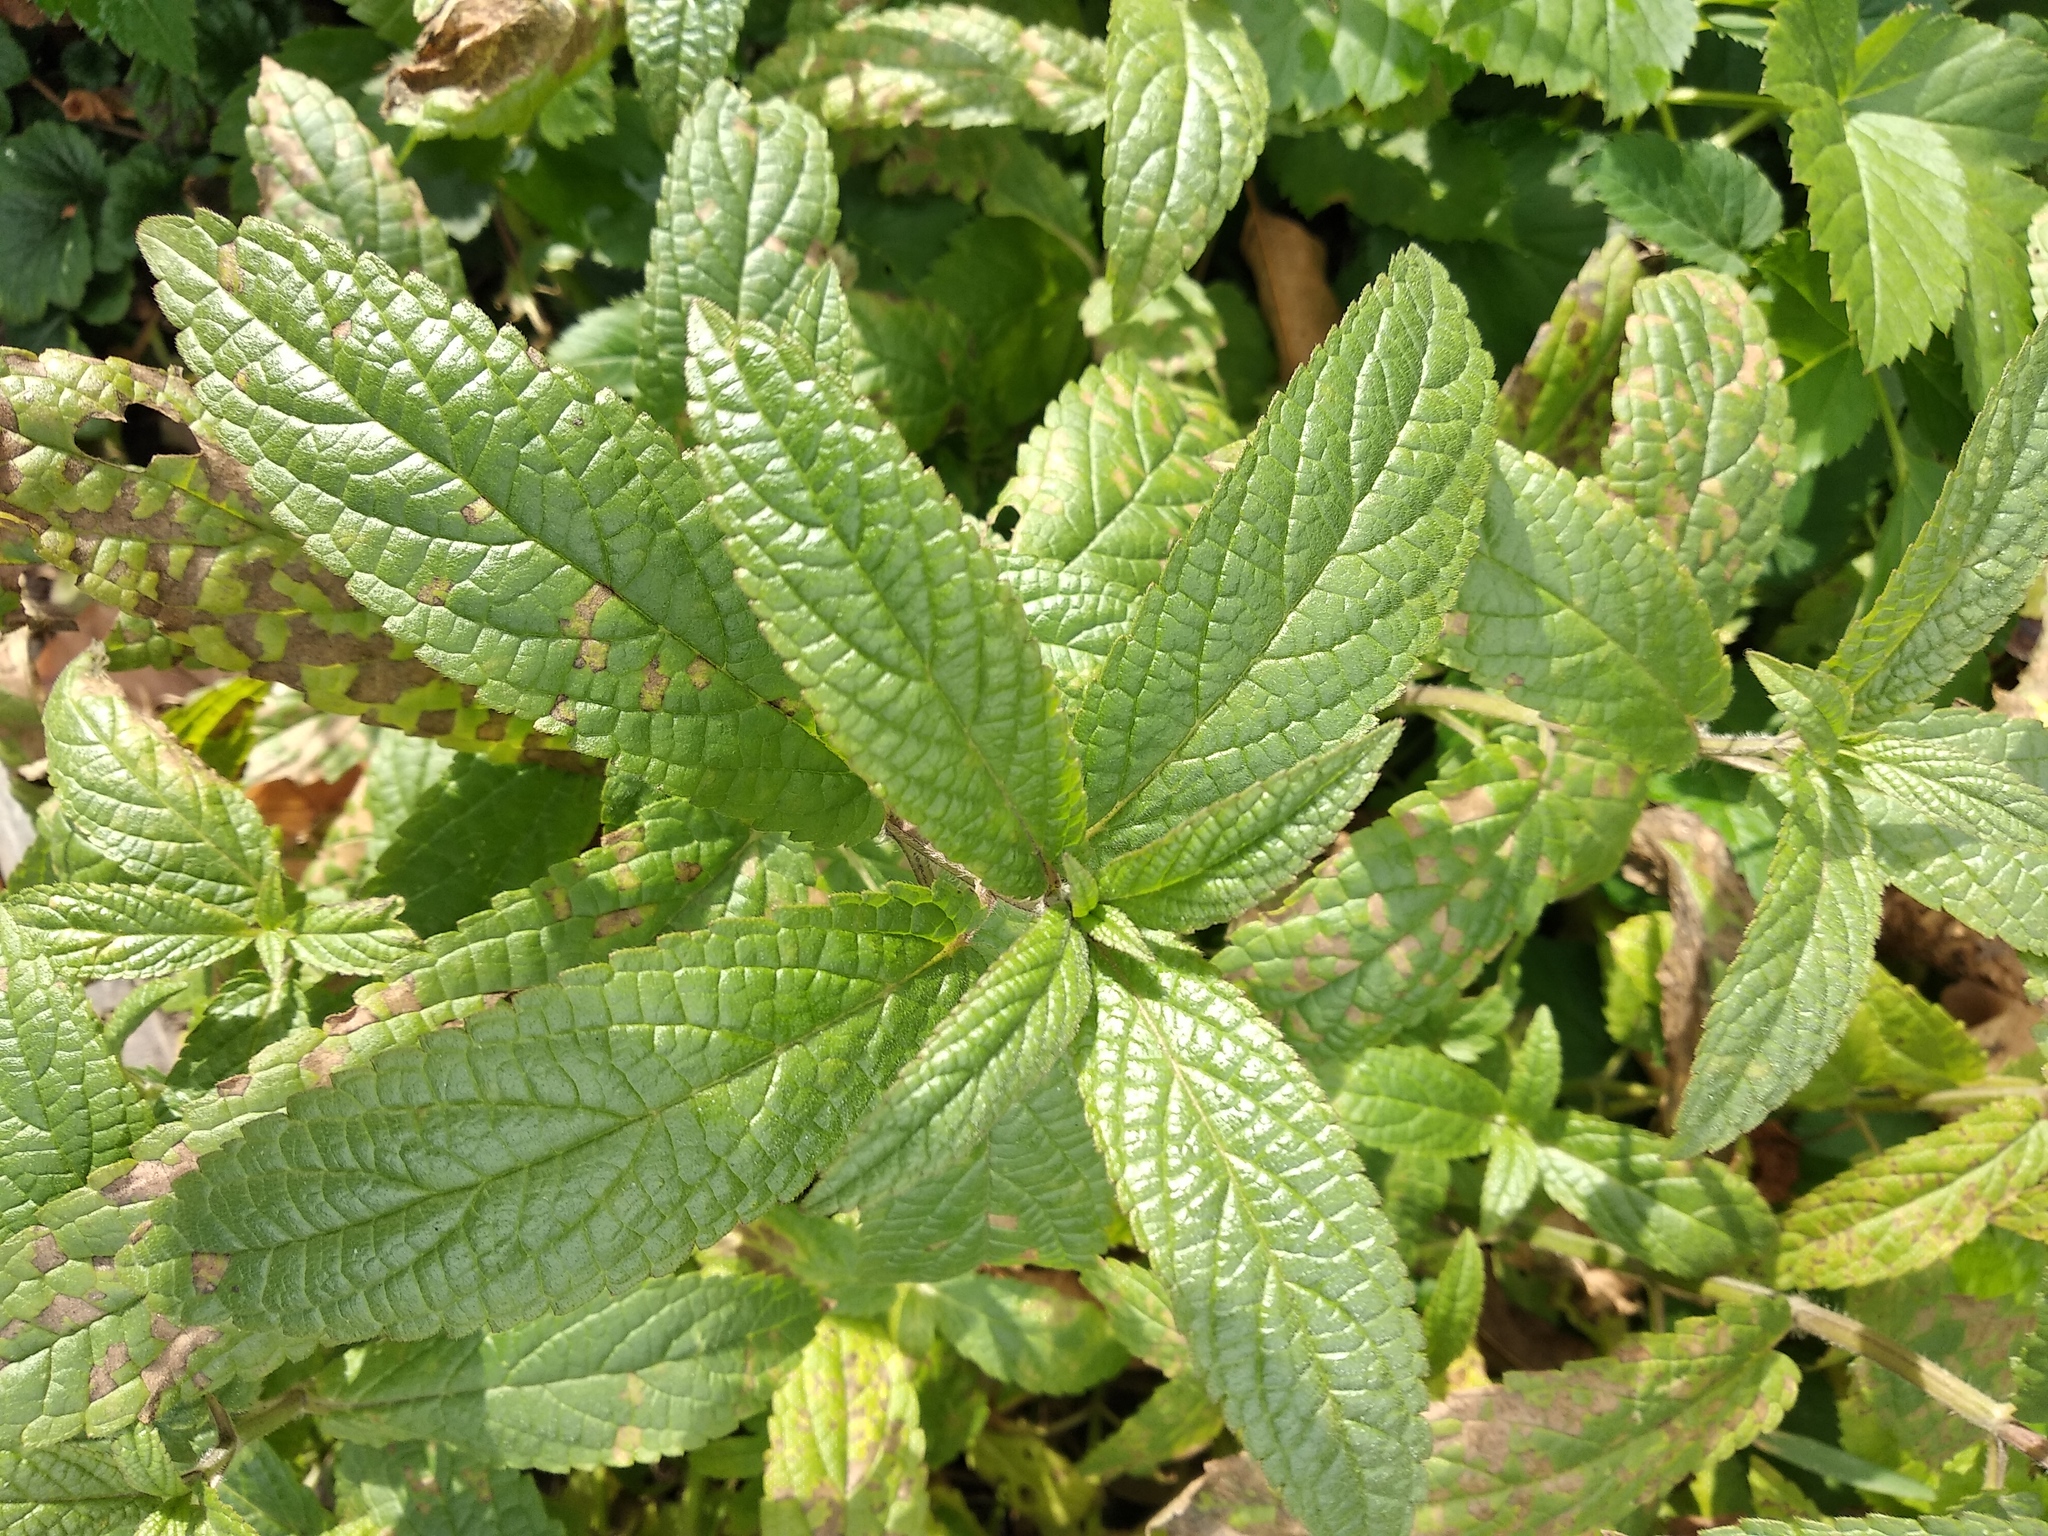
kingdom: Plantae
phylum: Tracheophyta
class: Magnoliopsida
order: Lamiales
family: Lamiaceae
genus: Stachys
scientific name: Stachys palustris
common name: Marsh woundwort
